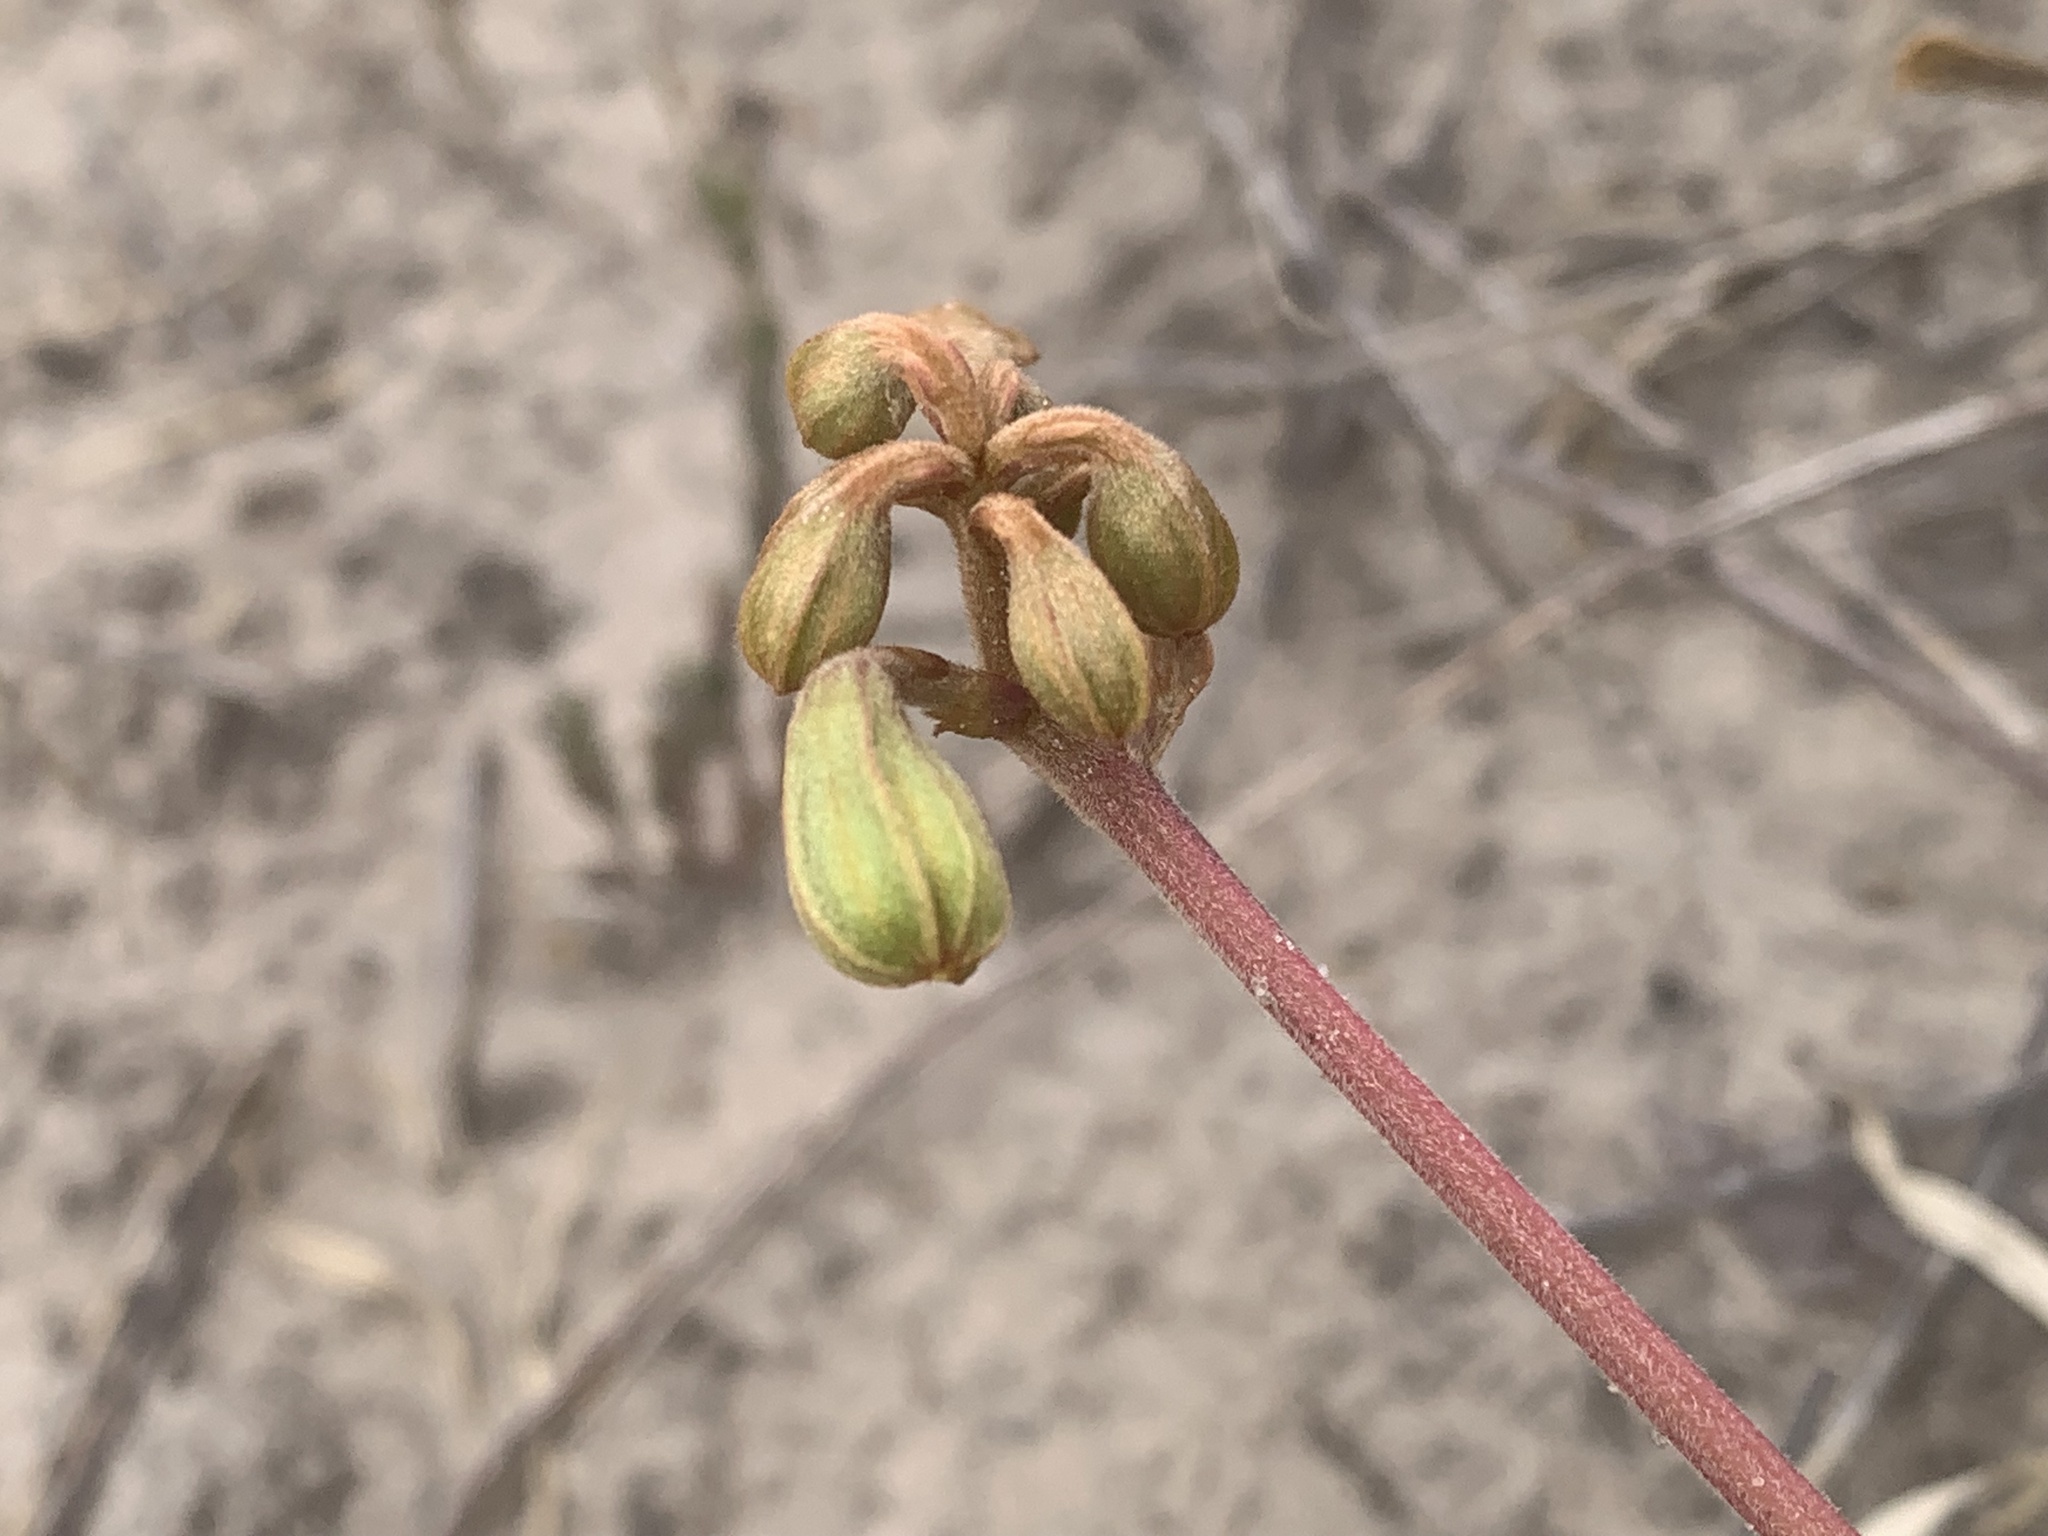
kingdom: Plantae
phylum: Tracheophyta
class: Magnoliopsida
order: Fabales
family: Fabaceae
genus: Tylosema
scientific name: Tylosema esculentum
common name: Marama-bean
